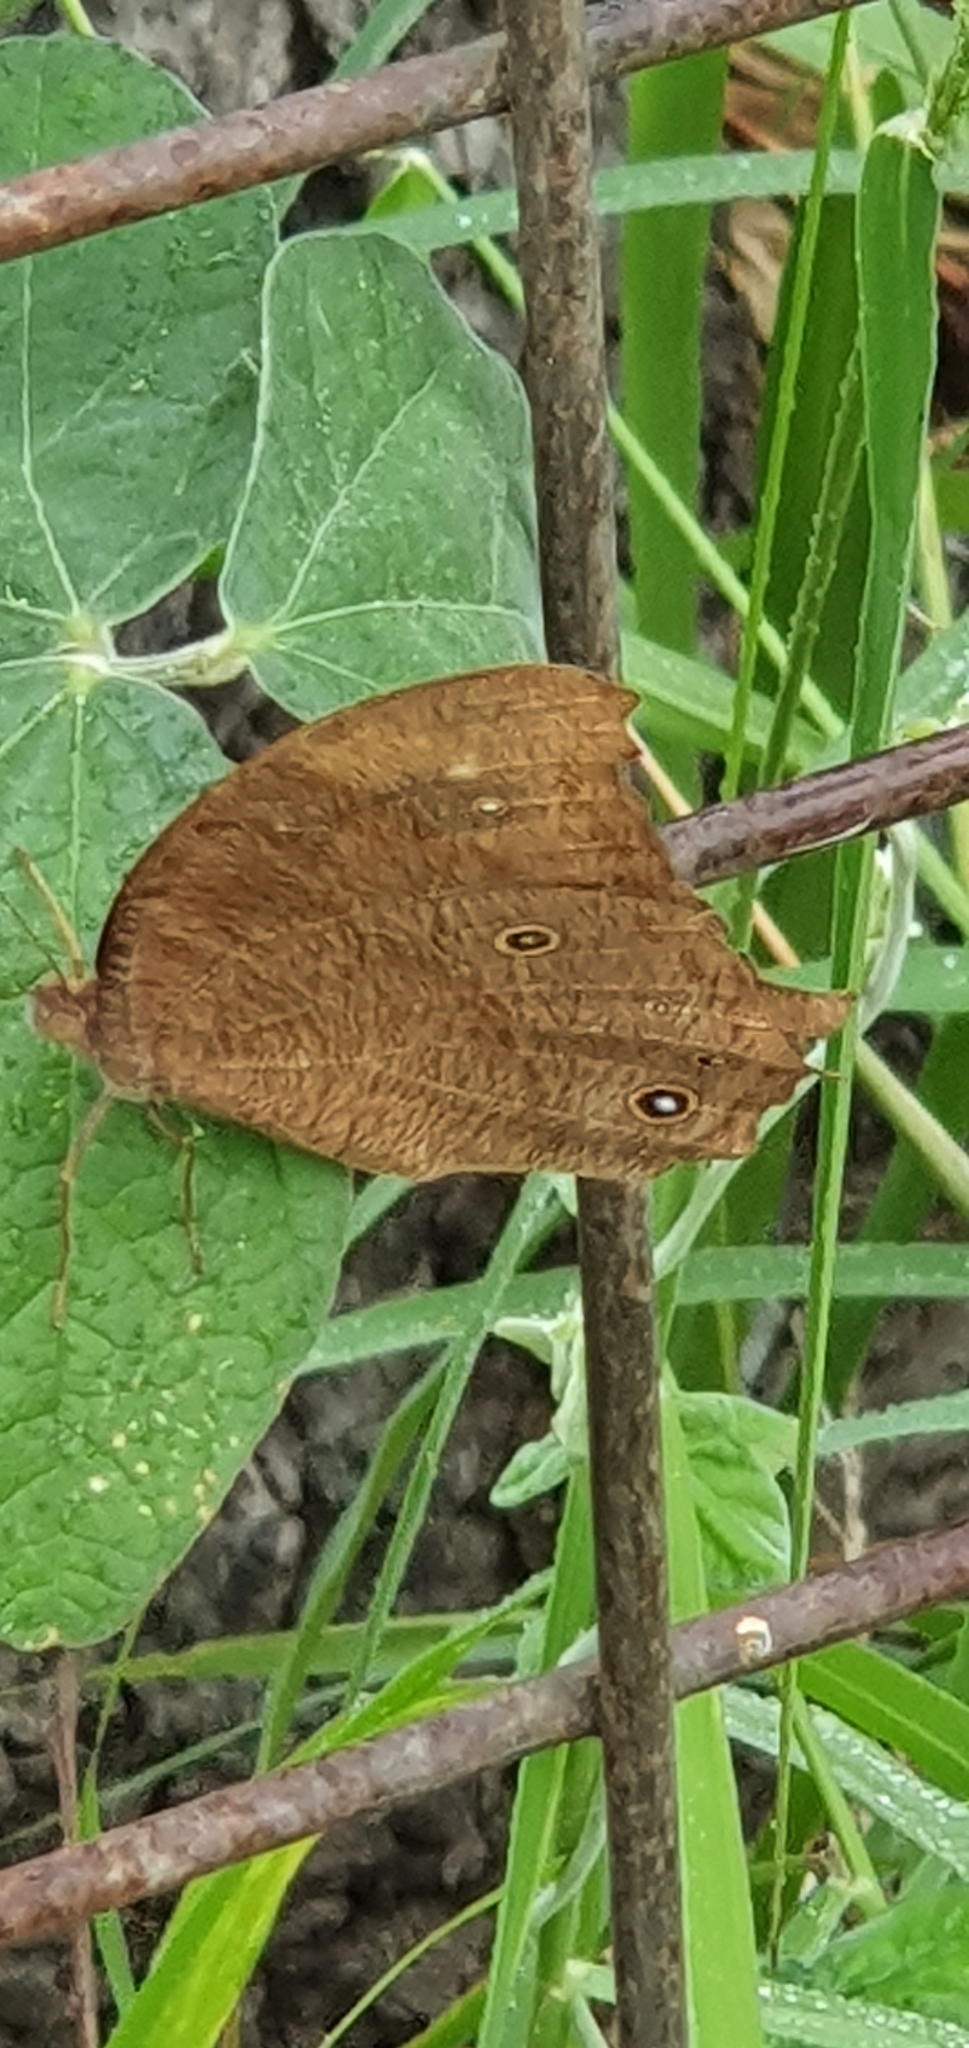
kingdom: Animalia
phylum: Arthropoda
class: Insecta
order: Lepidoptera
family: Nymphalidae
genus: Melanitis
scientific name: Melanitis leda
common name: Twilight brown
